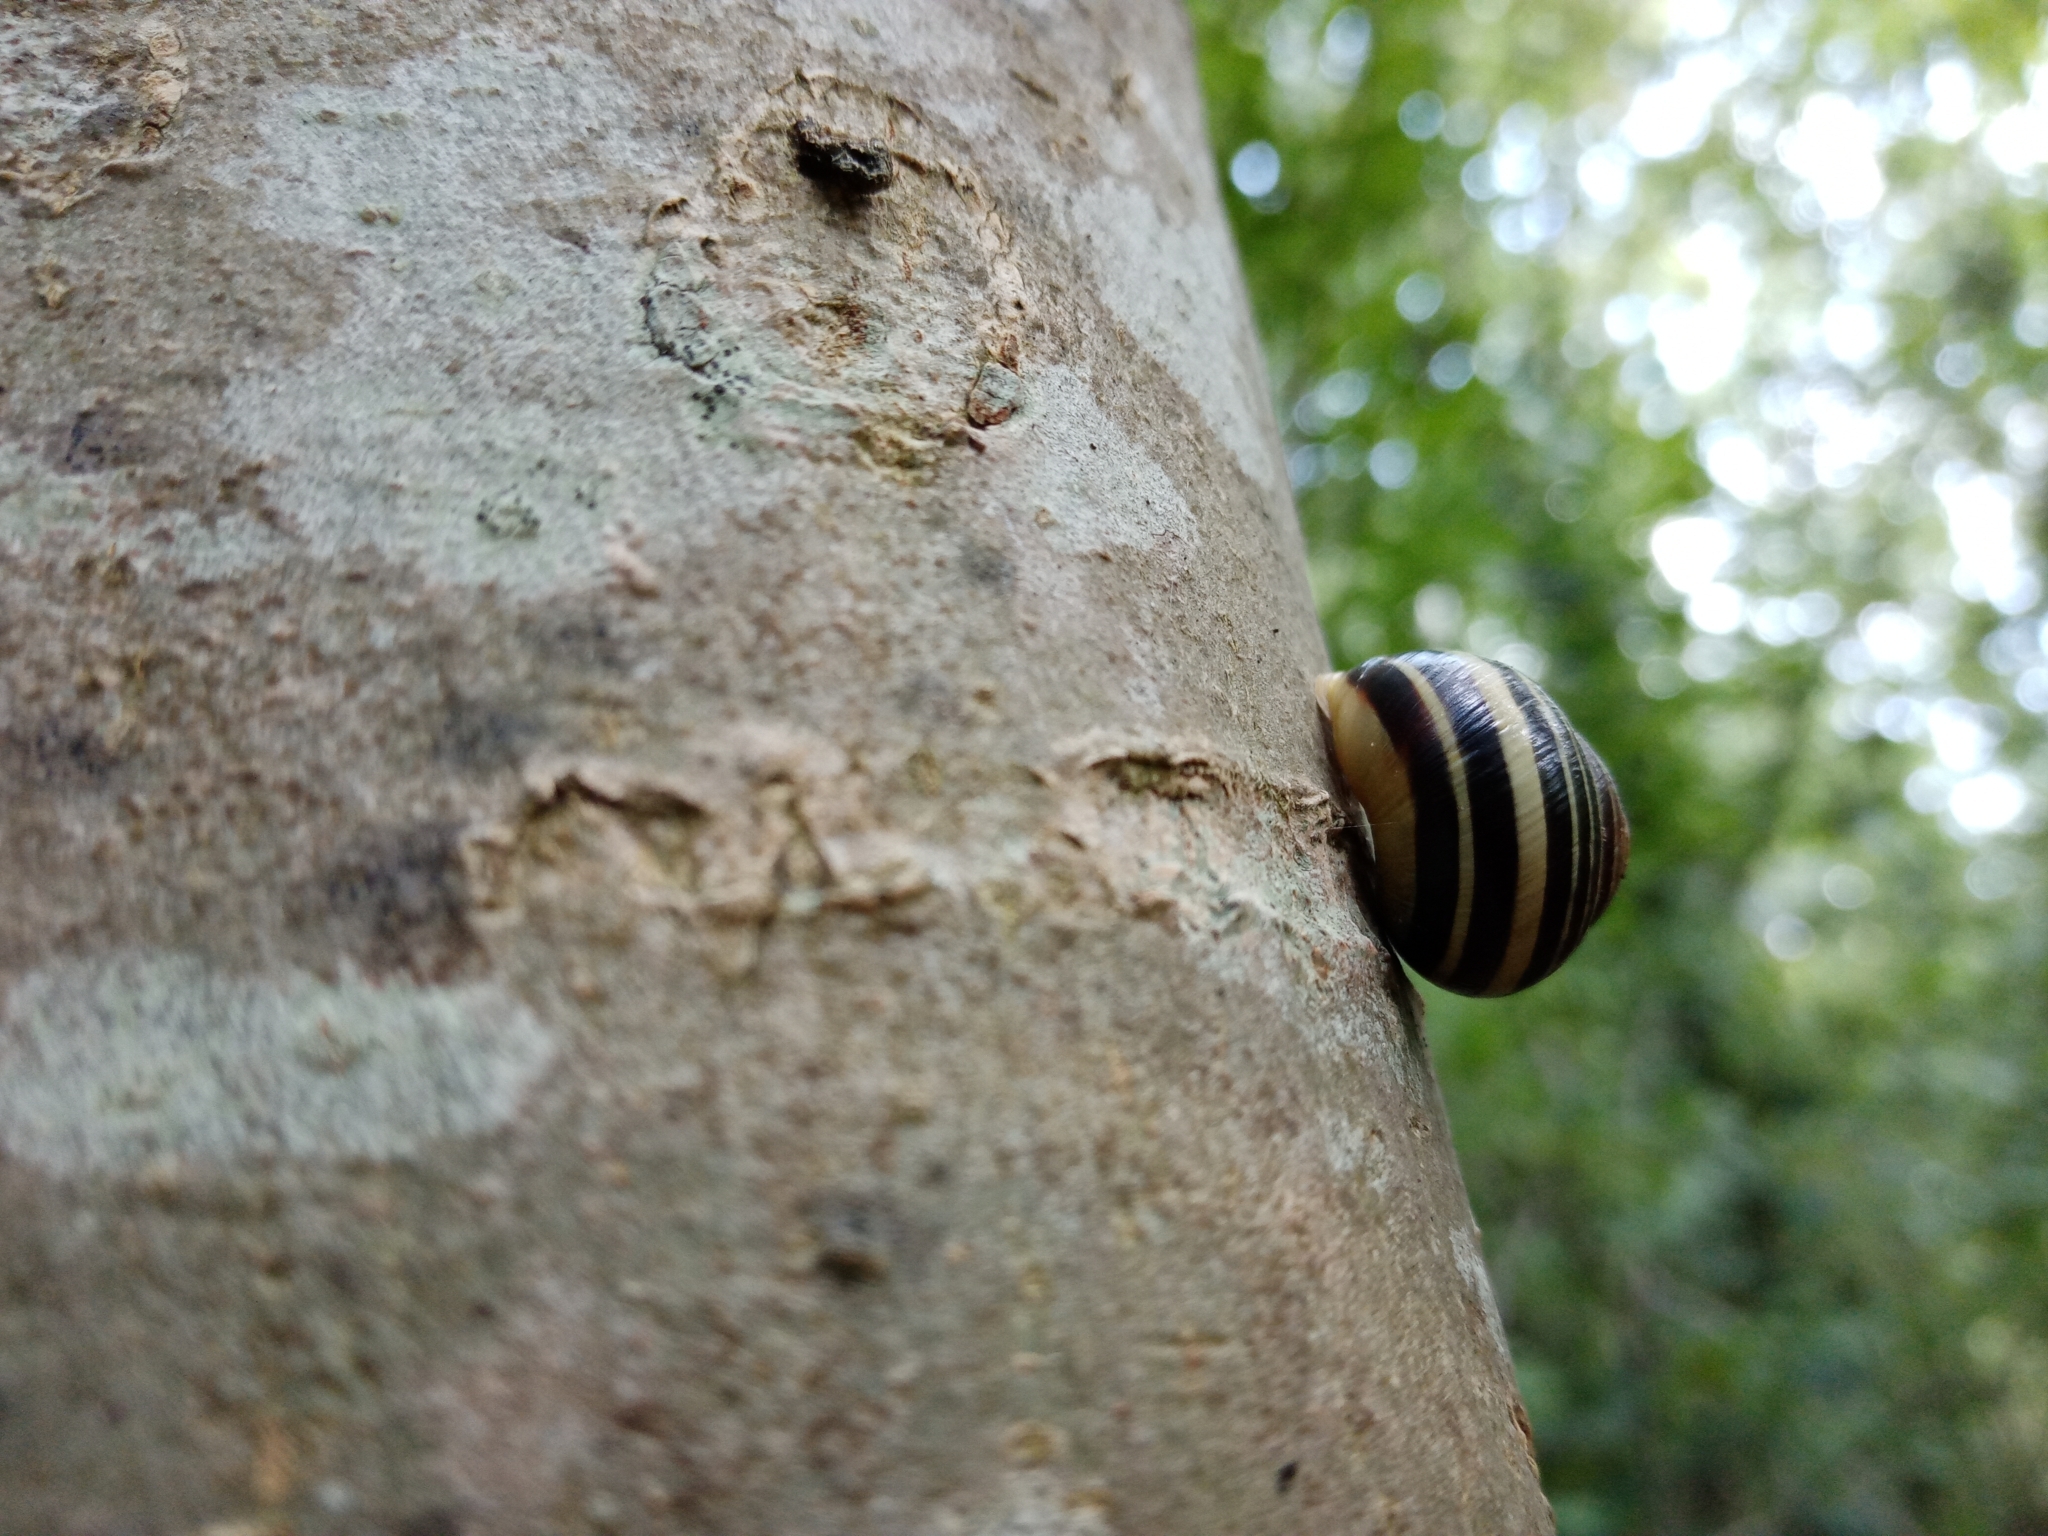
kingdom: Animalia
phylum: Mollusca
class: Gastropoda
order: Stylommatophora
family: Helicidae
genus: Cepaea
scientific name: Cepaea hortensis
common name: White-lip gardensnail
